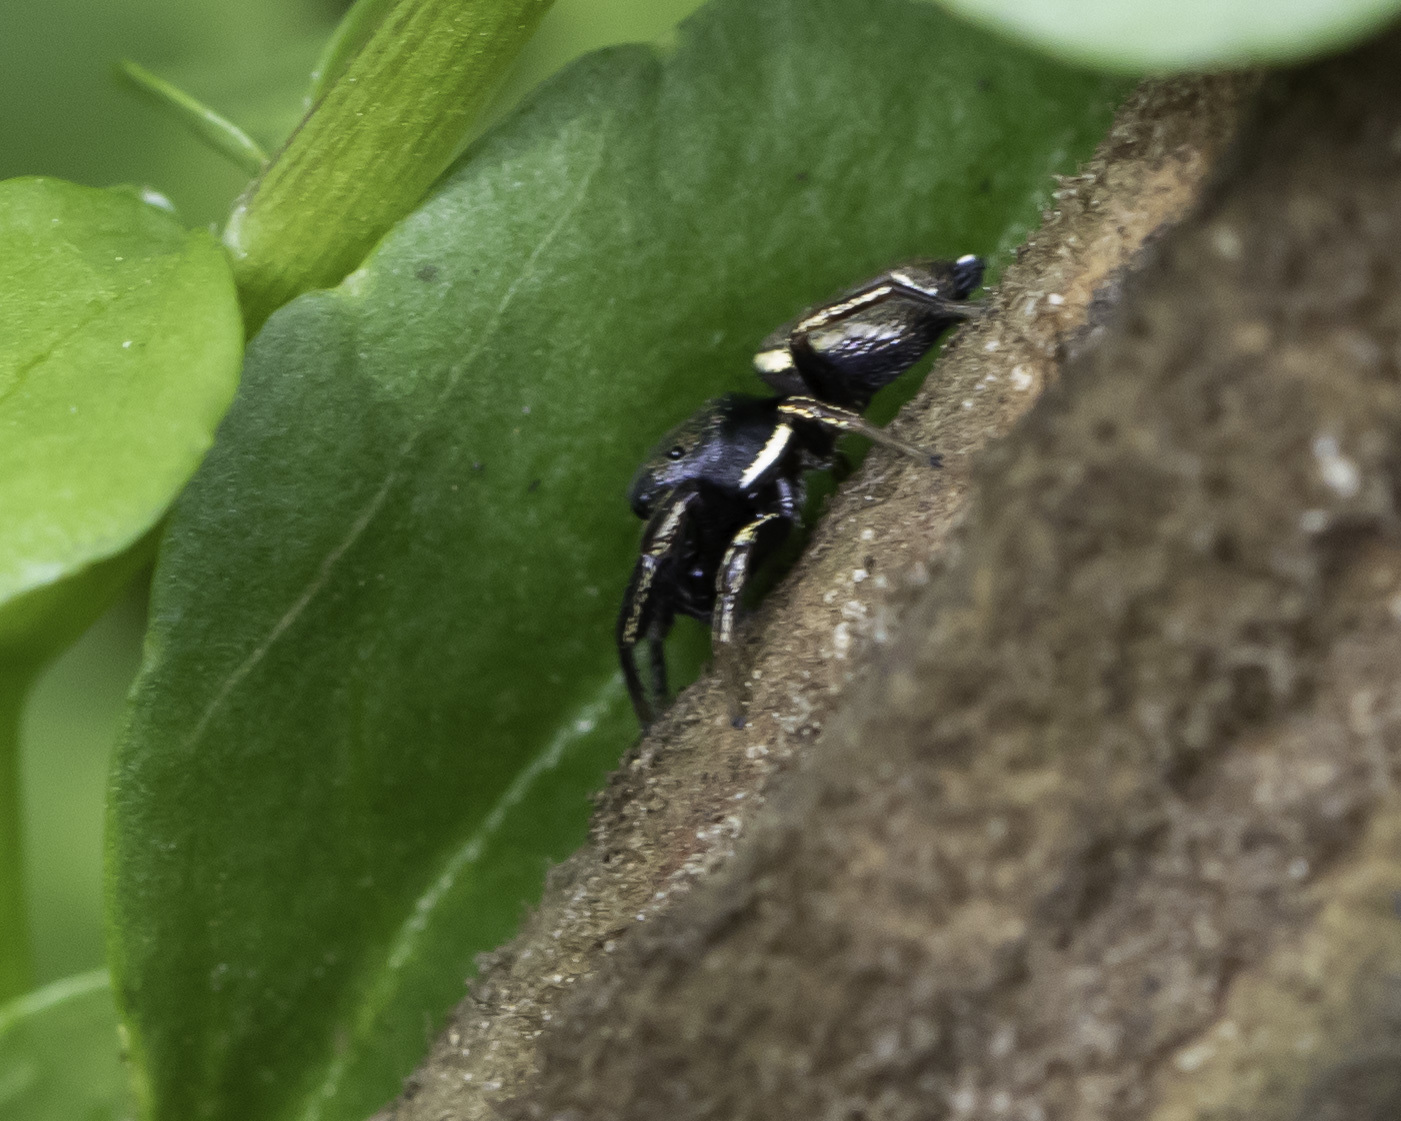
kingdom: Animalia
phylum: Arthropoda
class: Arachnida
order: Araneae
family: Salticidae
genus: Sassacus
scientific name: Sassacus vitis
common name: Jumping spiders
